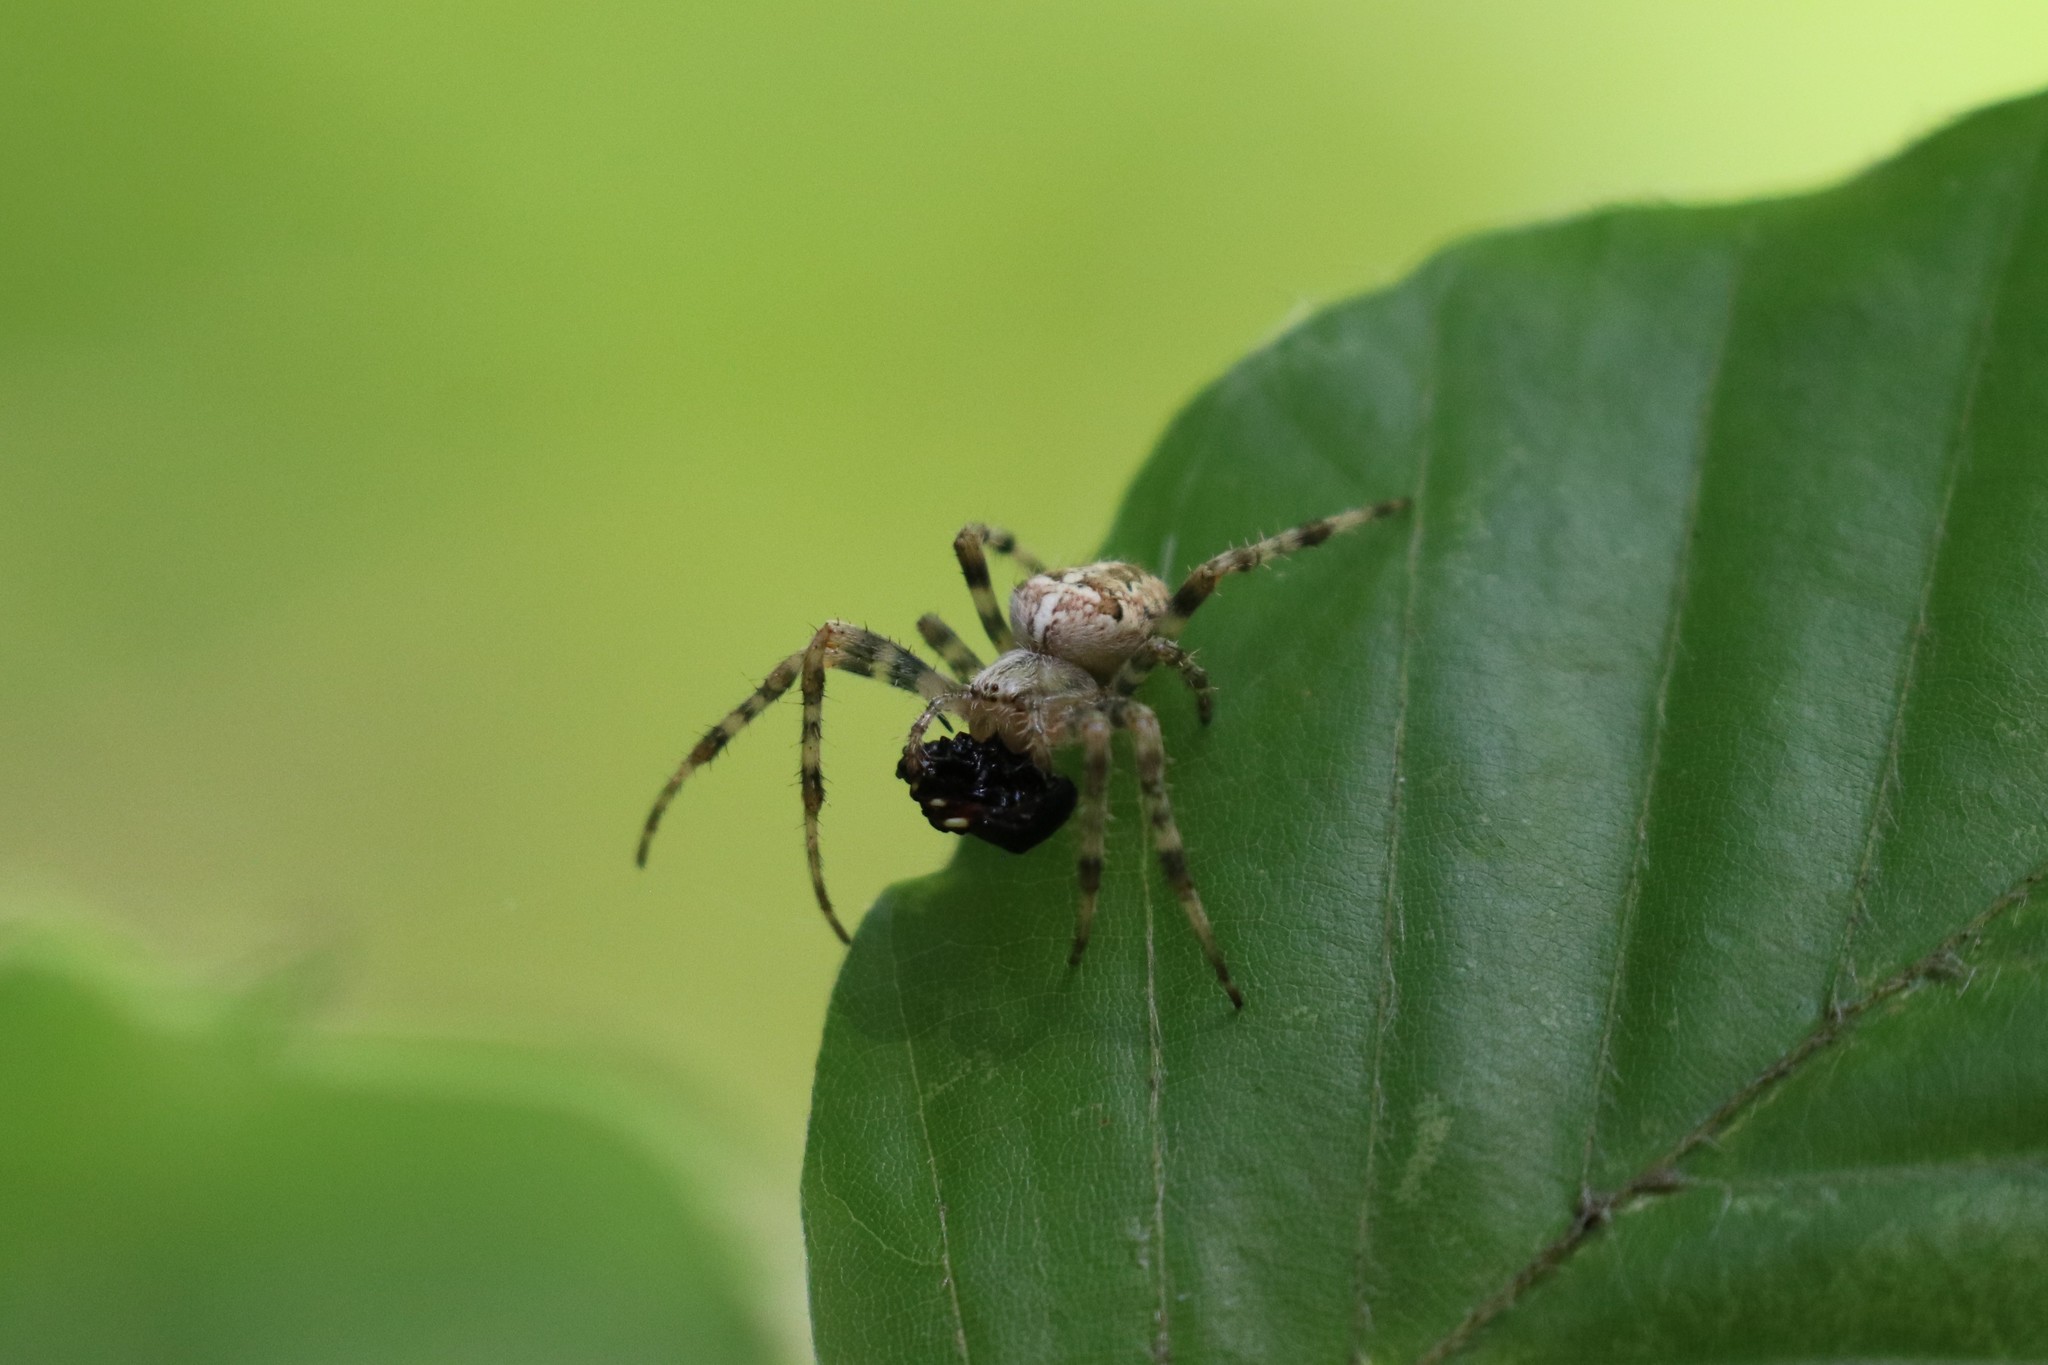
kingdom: Animalia
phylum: Arthropoda
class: Arachnida
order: Araneae
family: Araneidae
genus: Araneus
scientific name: Araneus diadematus
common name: Cross orbweaver
